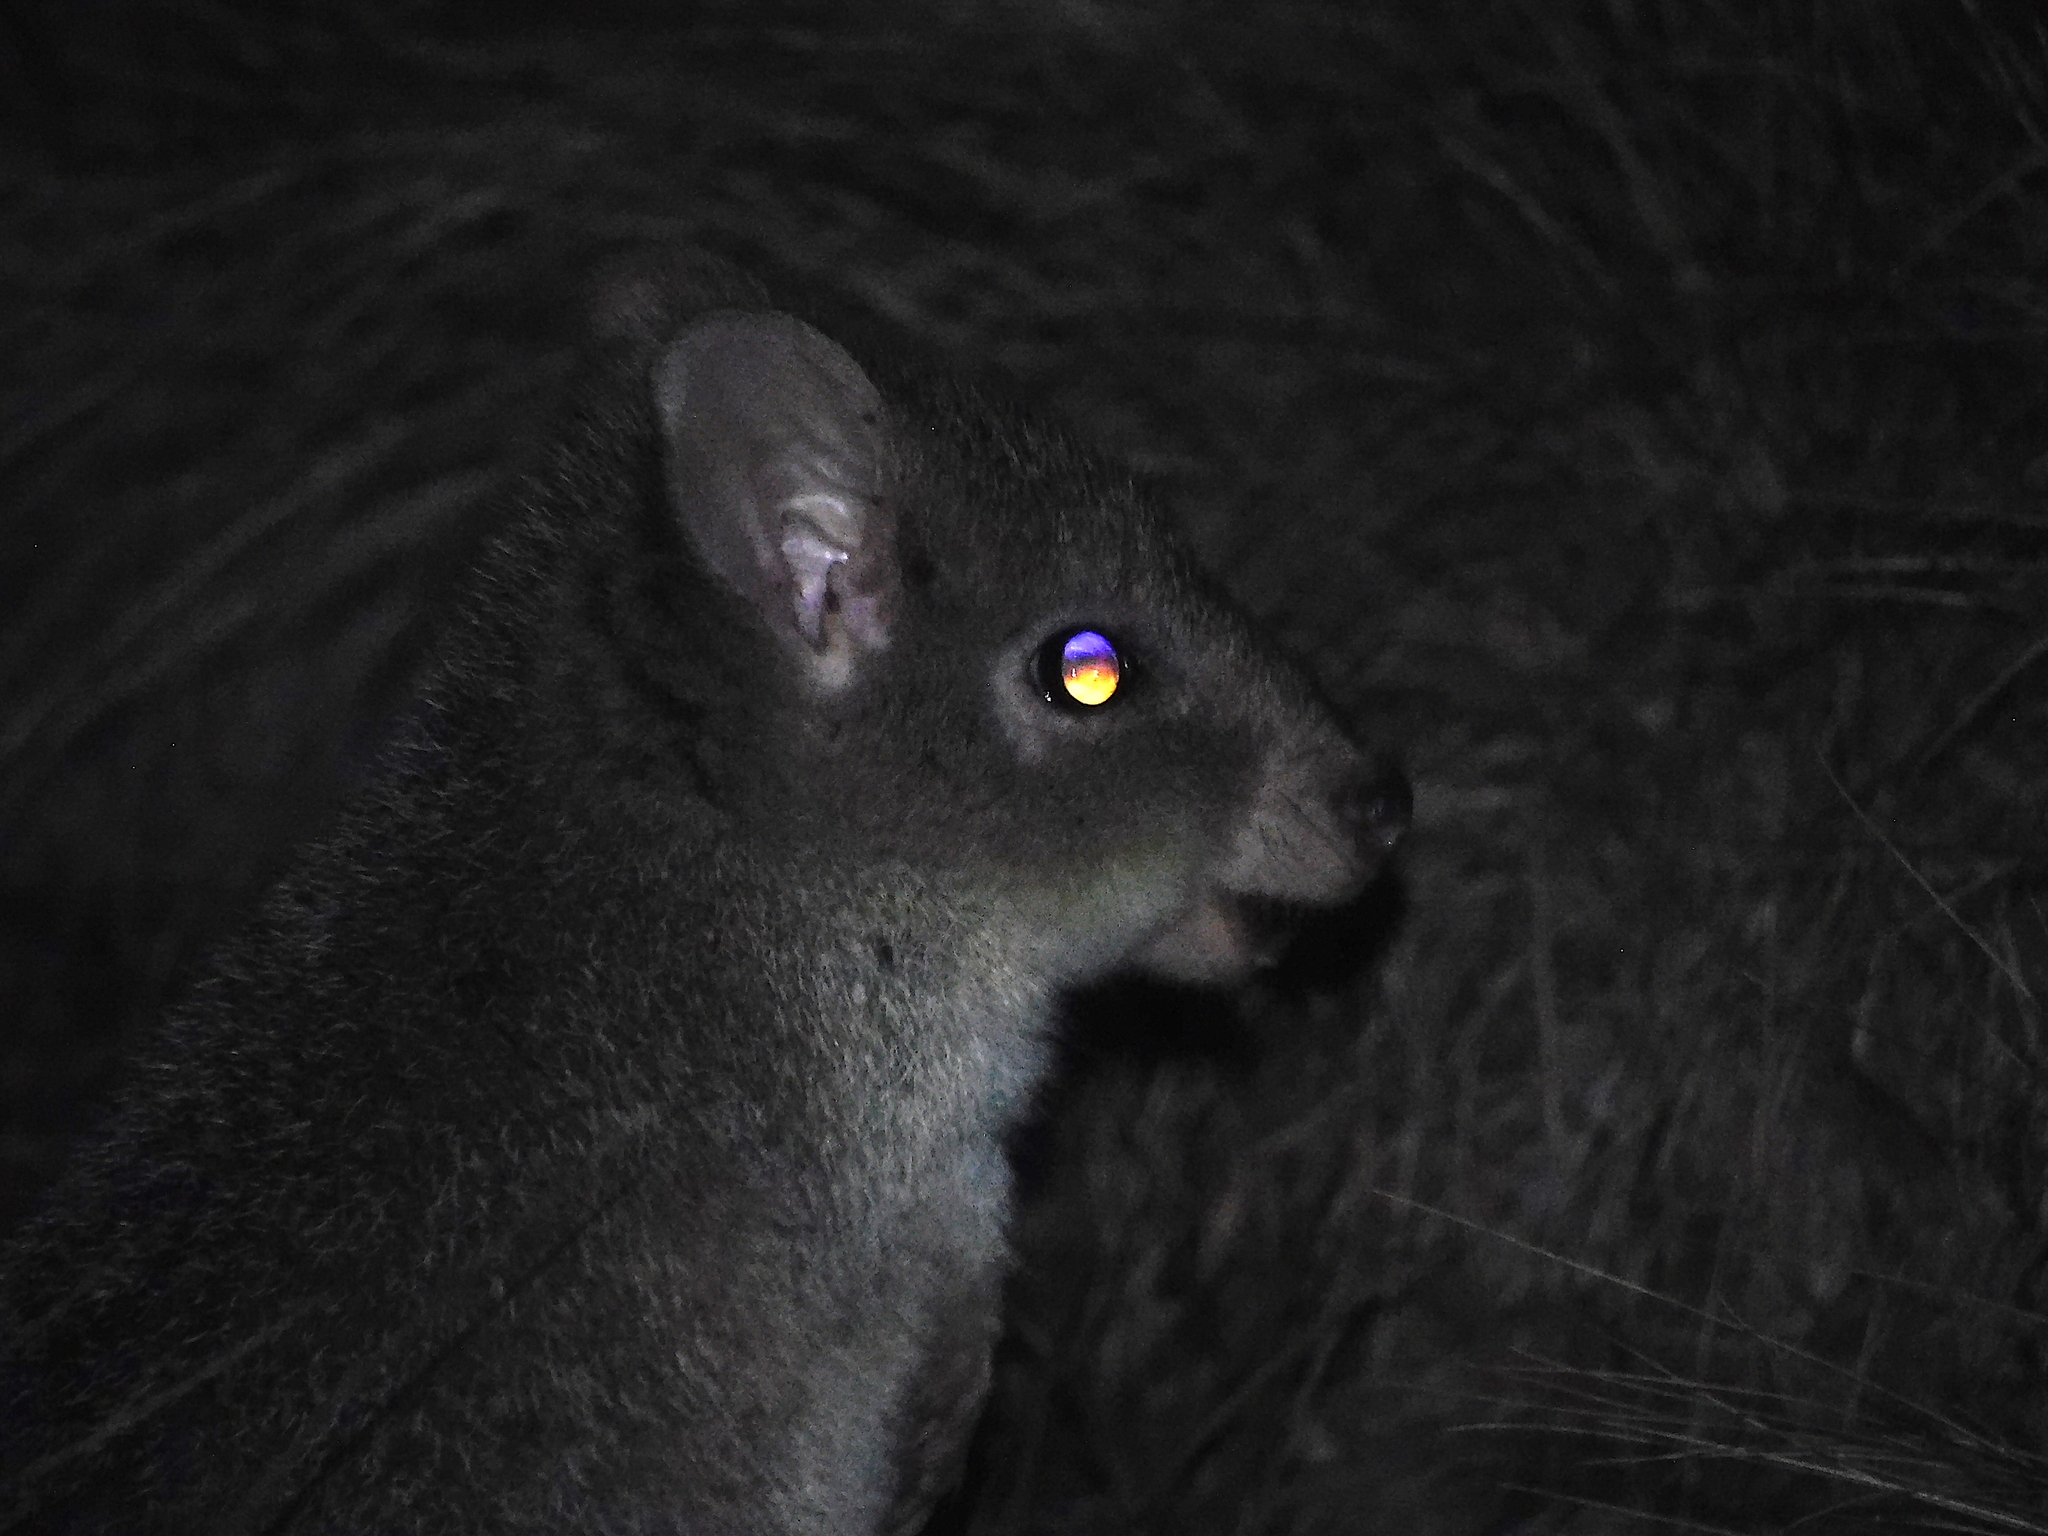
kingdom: Animalia
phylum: Chordata
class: Mammalia
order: Diprotodontia
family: Potoroidae
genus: Bettongia
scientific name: Bettongia gaimardi
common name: Eastern bettong
